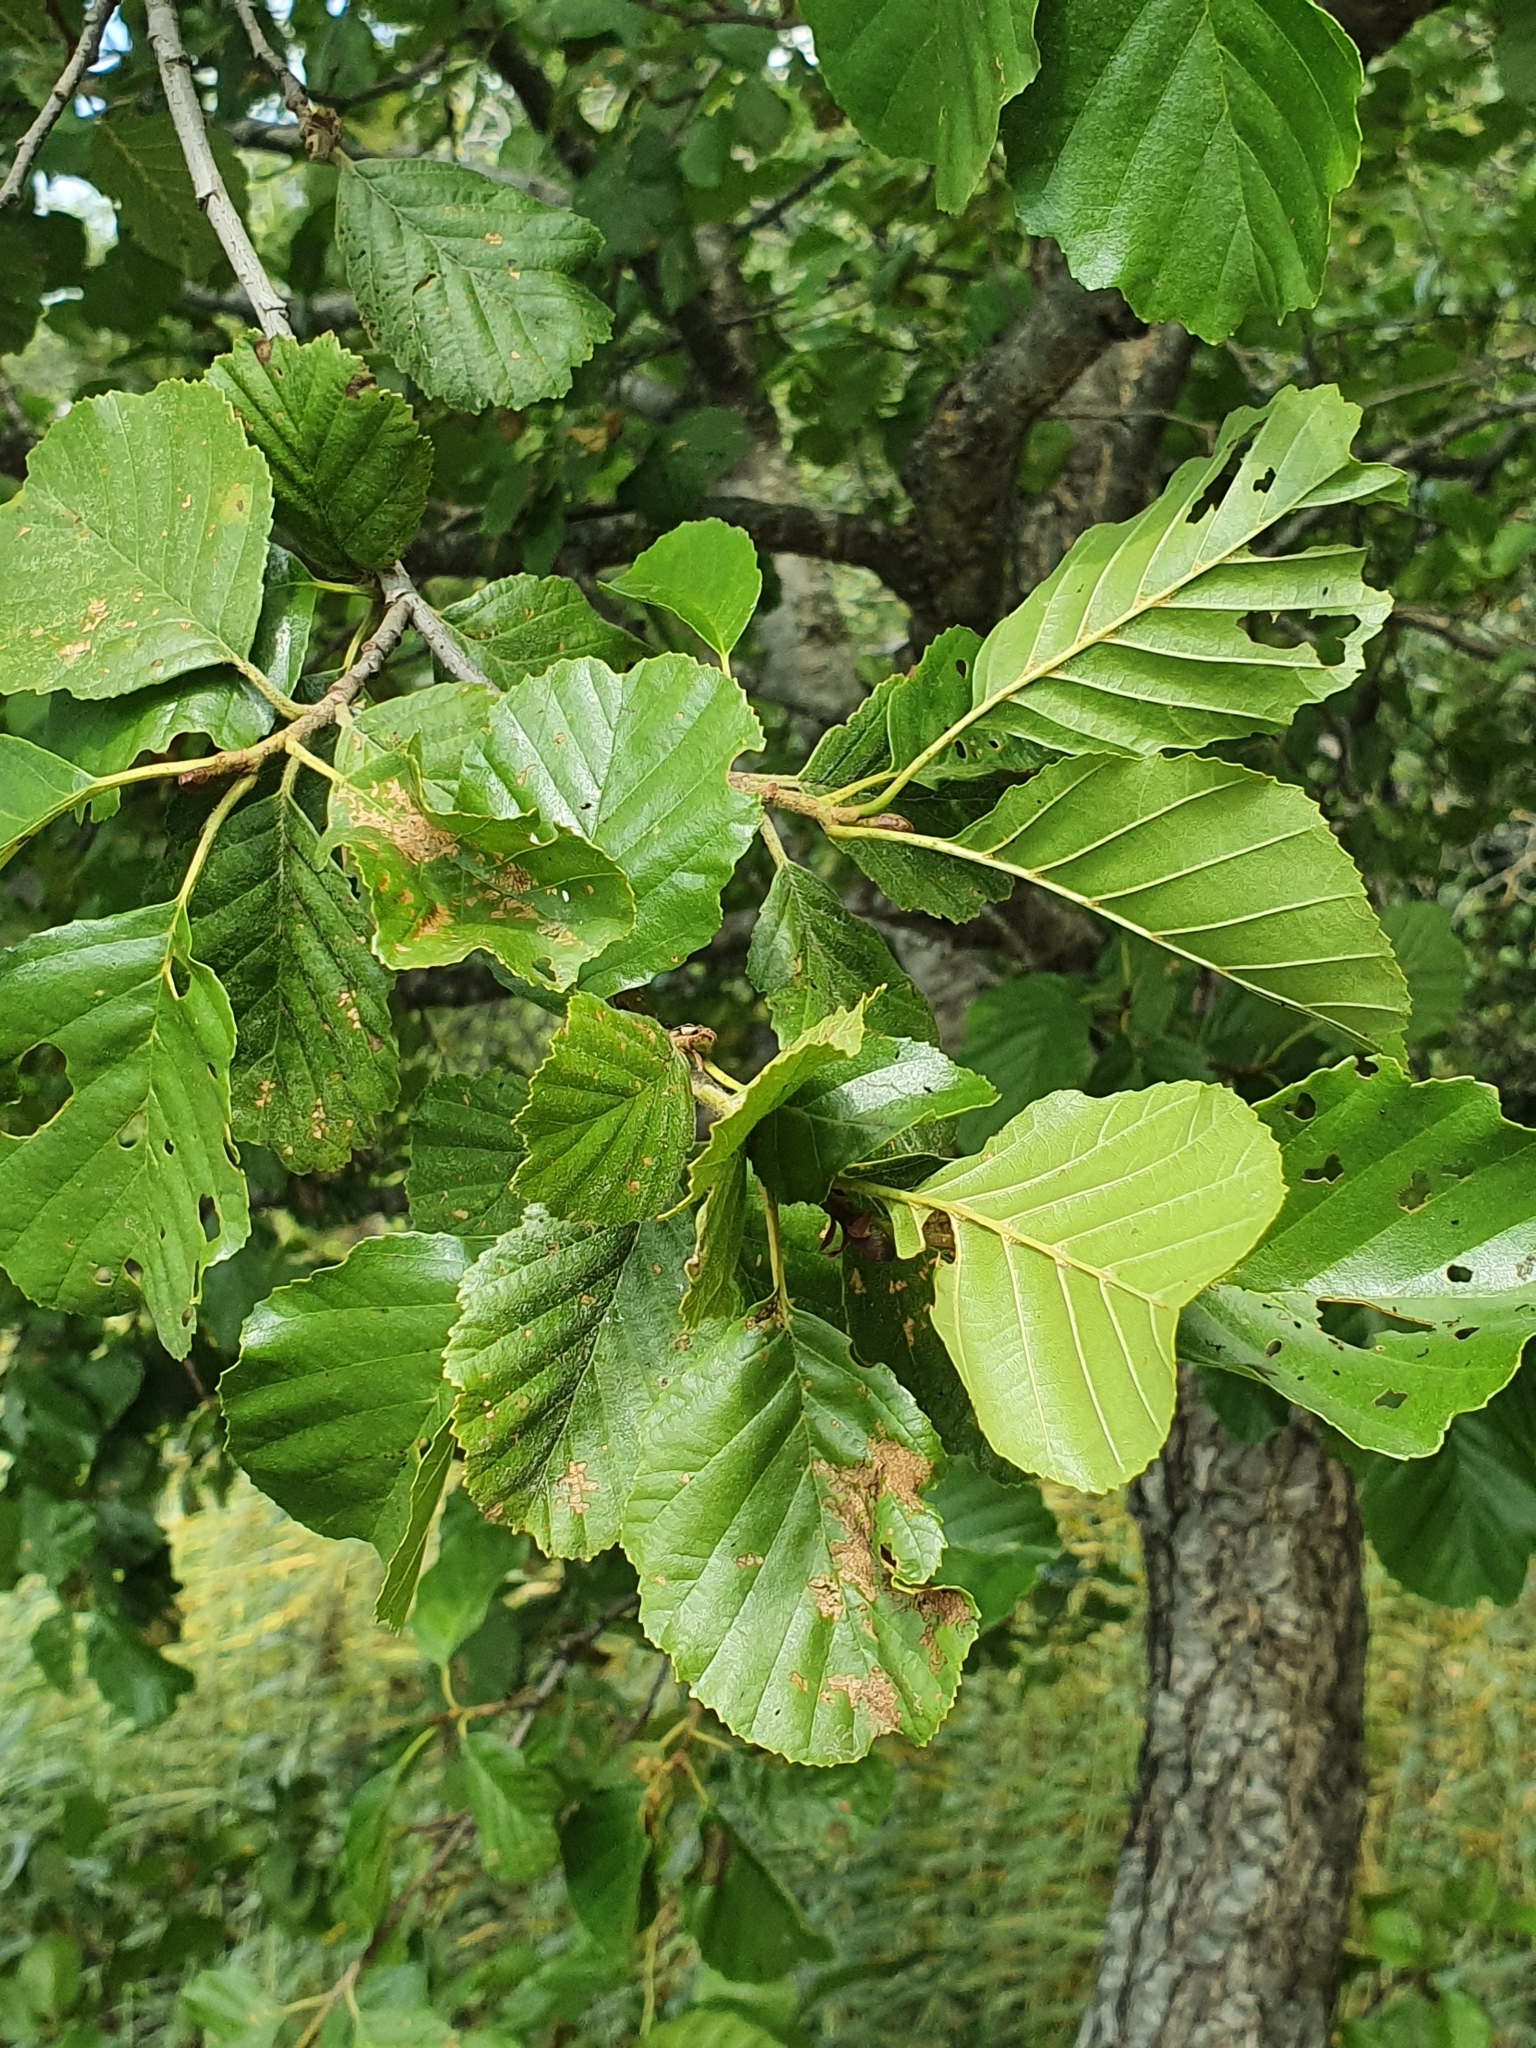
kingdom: Plantae
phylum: Tracheophyta
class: Magnoliopsida
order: Fagales
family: Betulaceae
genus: Alnus
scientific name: Alnus glutinosa
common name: Black alder
